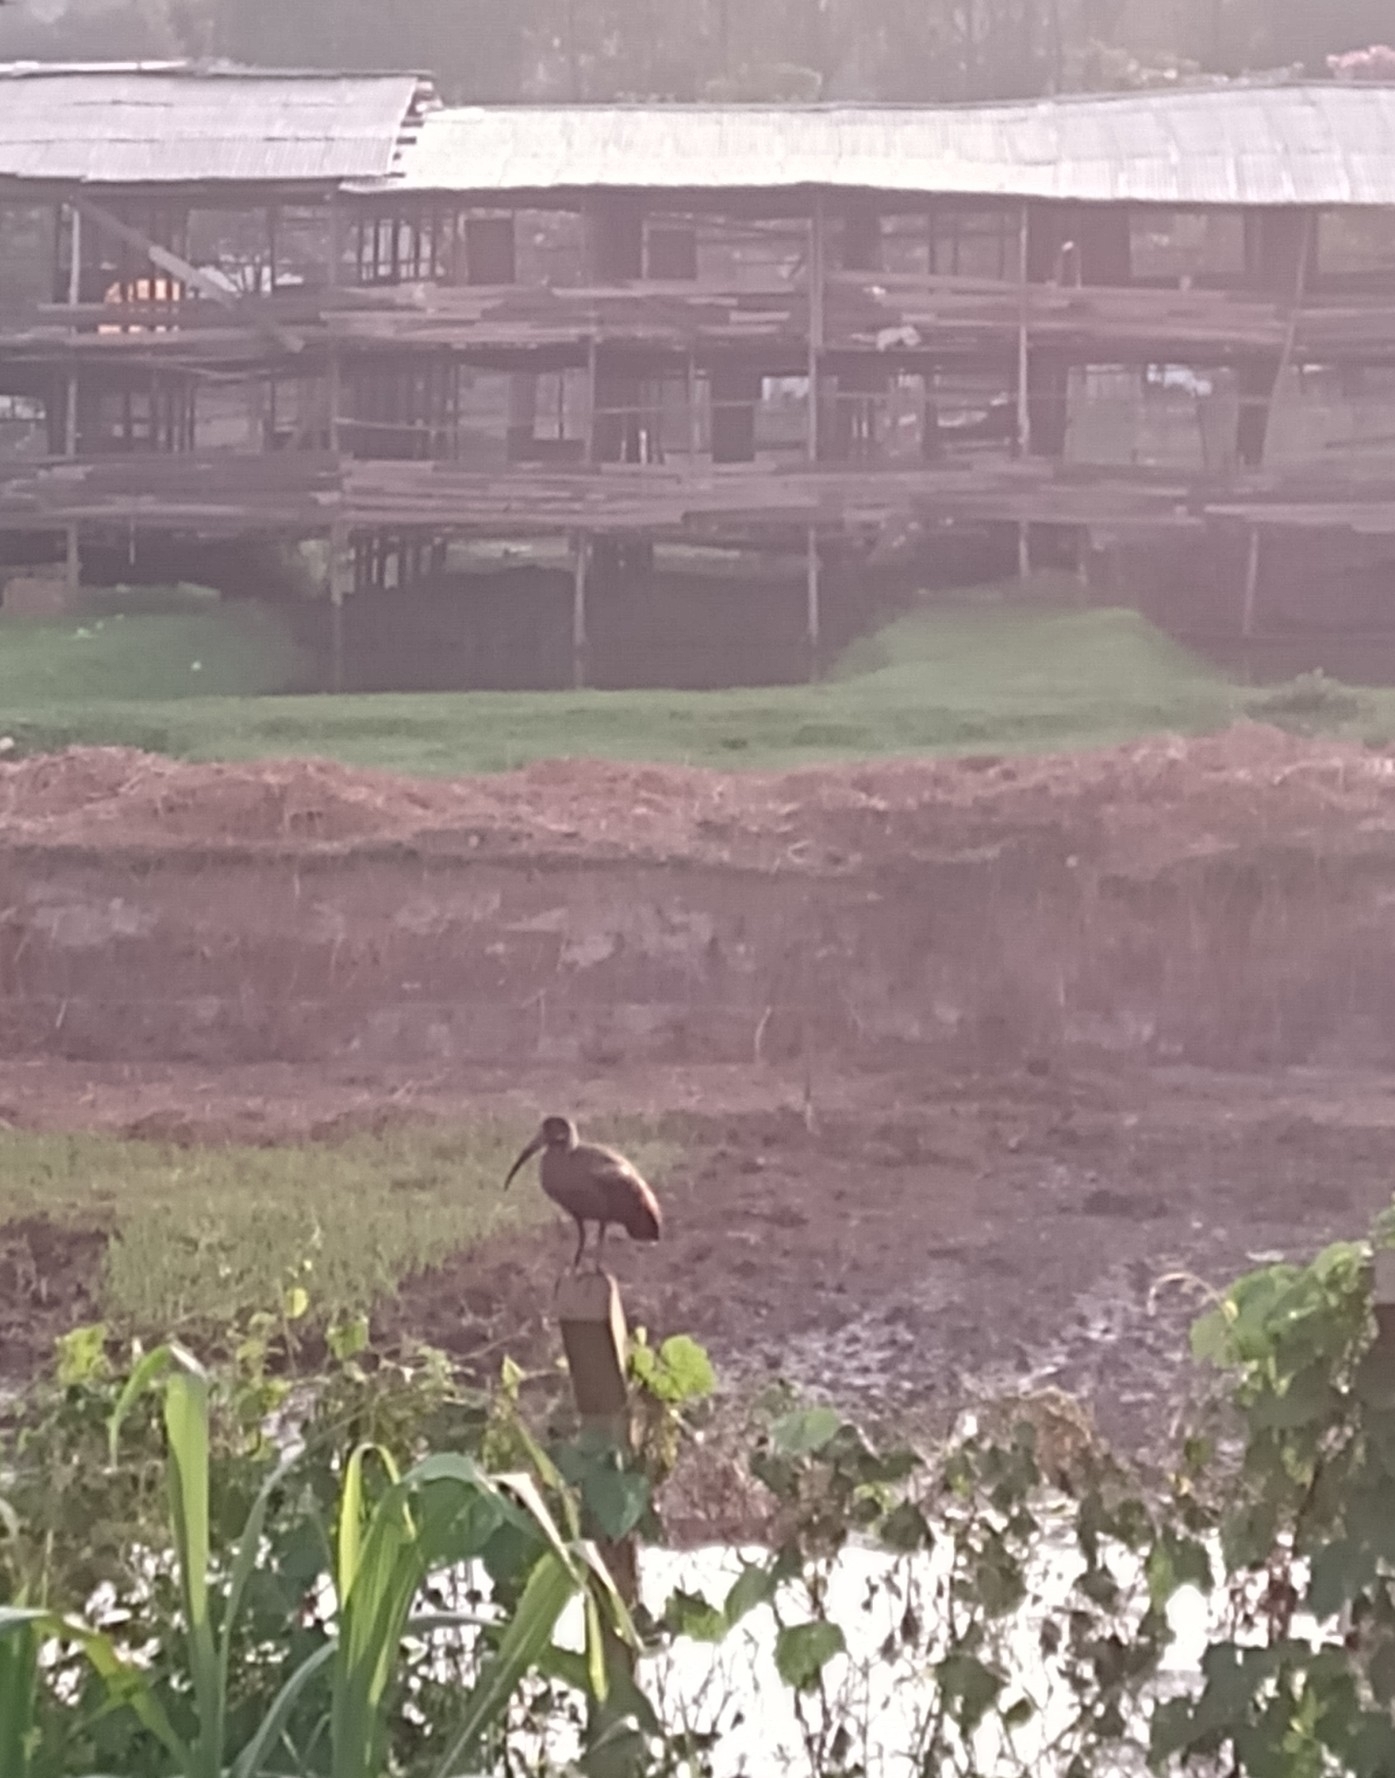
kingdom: Animalia
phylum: Chordata
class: Aves
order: Pelecaniformes
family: Threskiornithidae
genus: Bostrychia
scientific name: Bostrychia hagedash
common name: Hadada ibis
